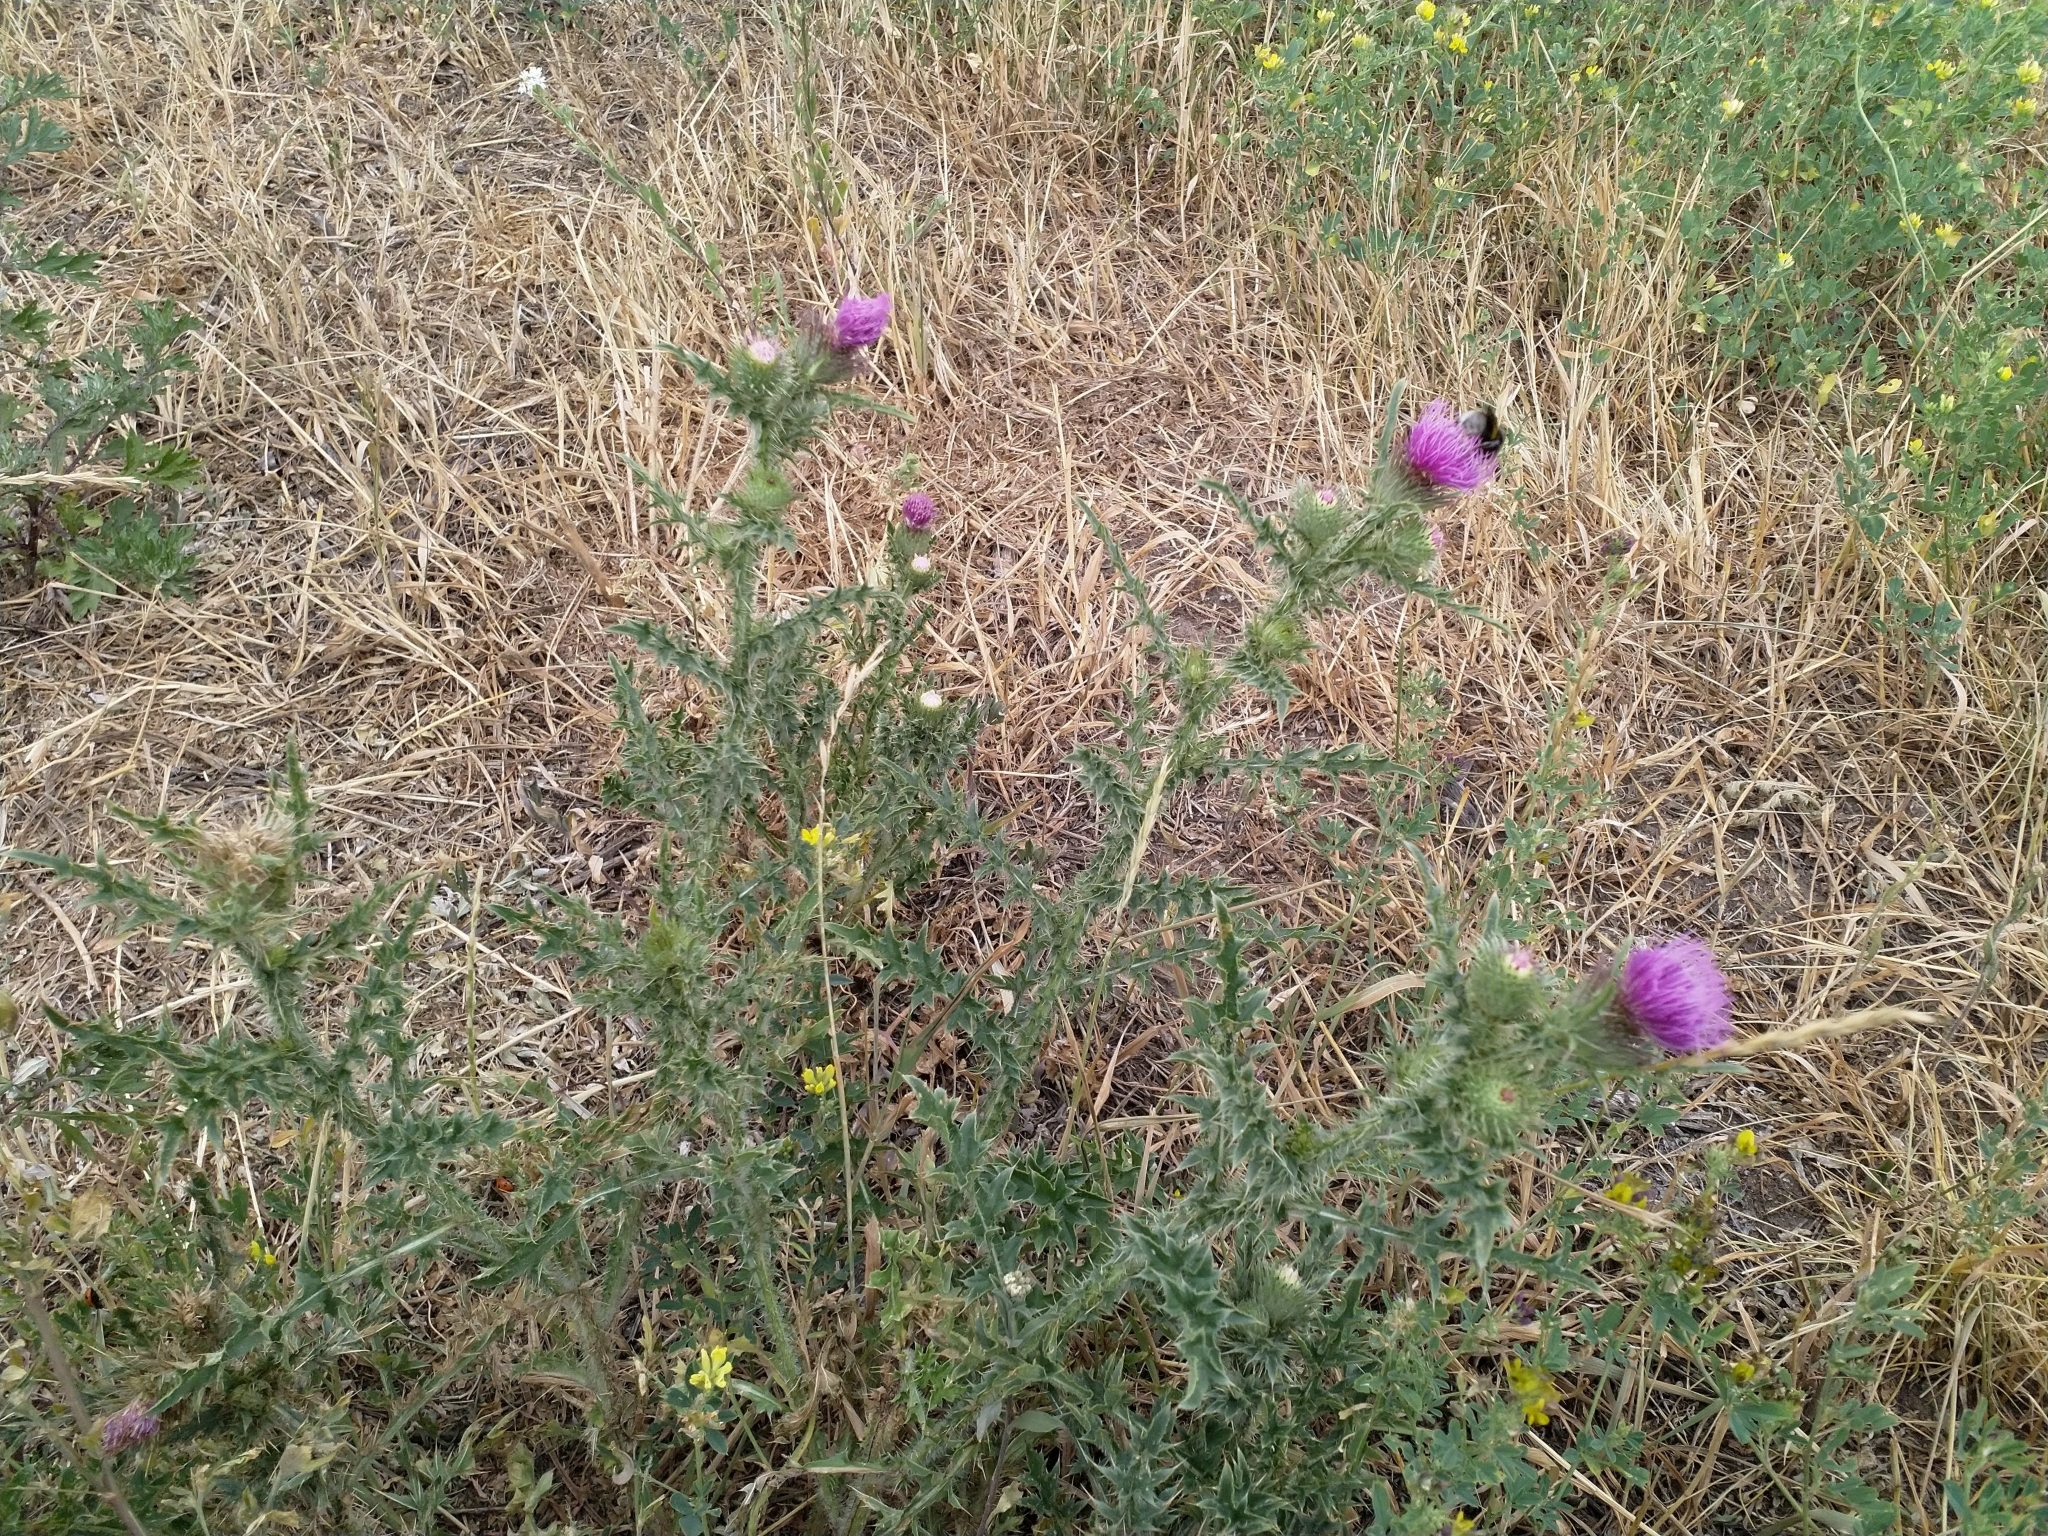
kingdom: Plantae
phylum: Tracheophyta
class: Magnoliopsida
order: Asterales
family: Asteraceae
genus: Carduus
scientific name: Carduus acanthoides
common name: Plumeless thistle
